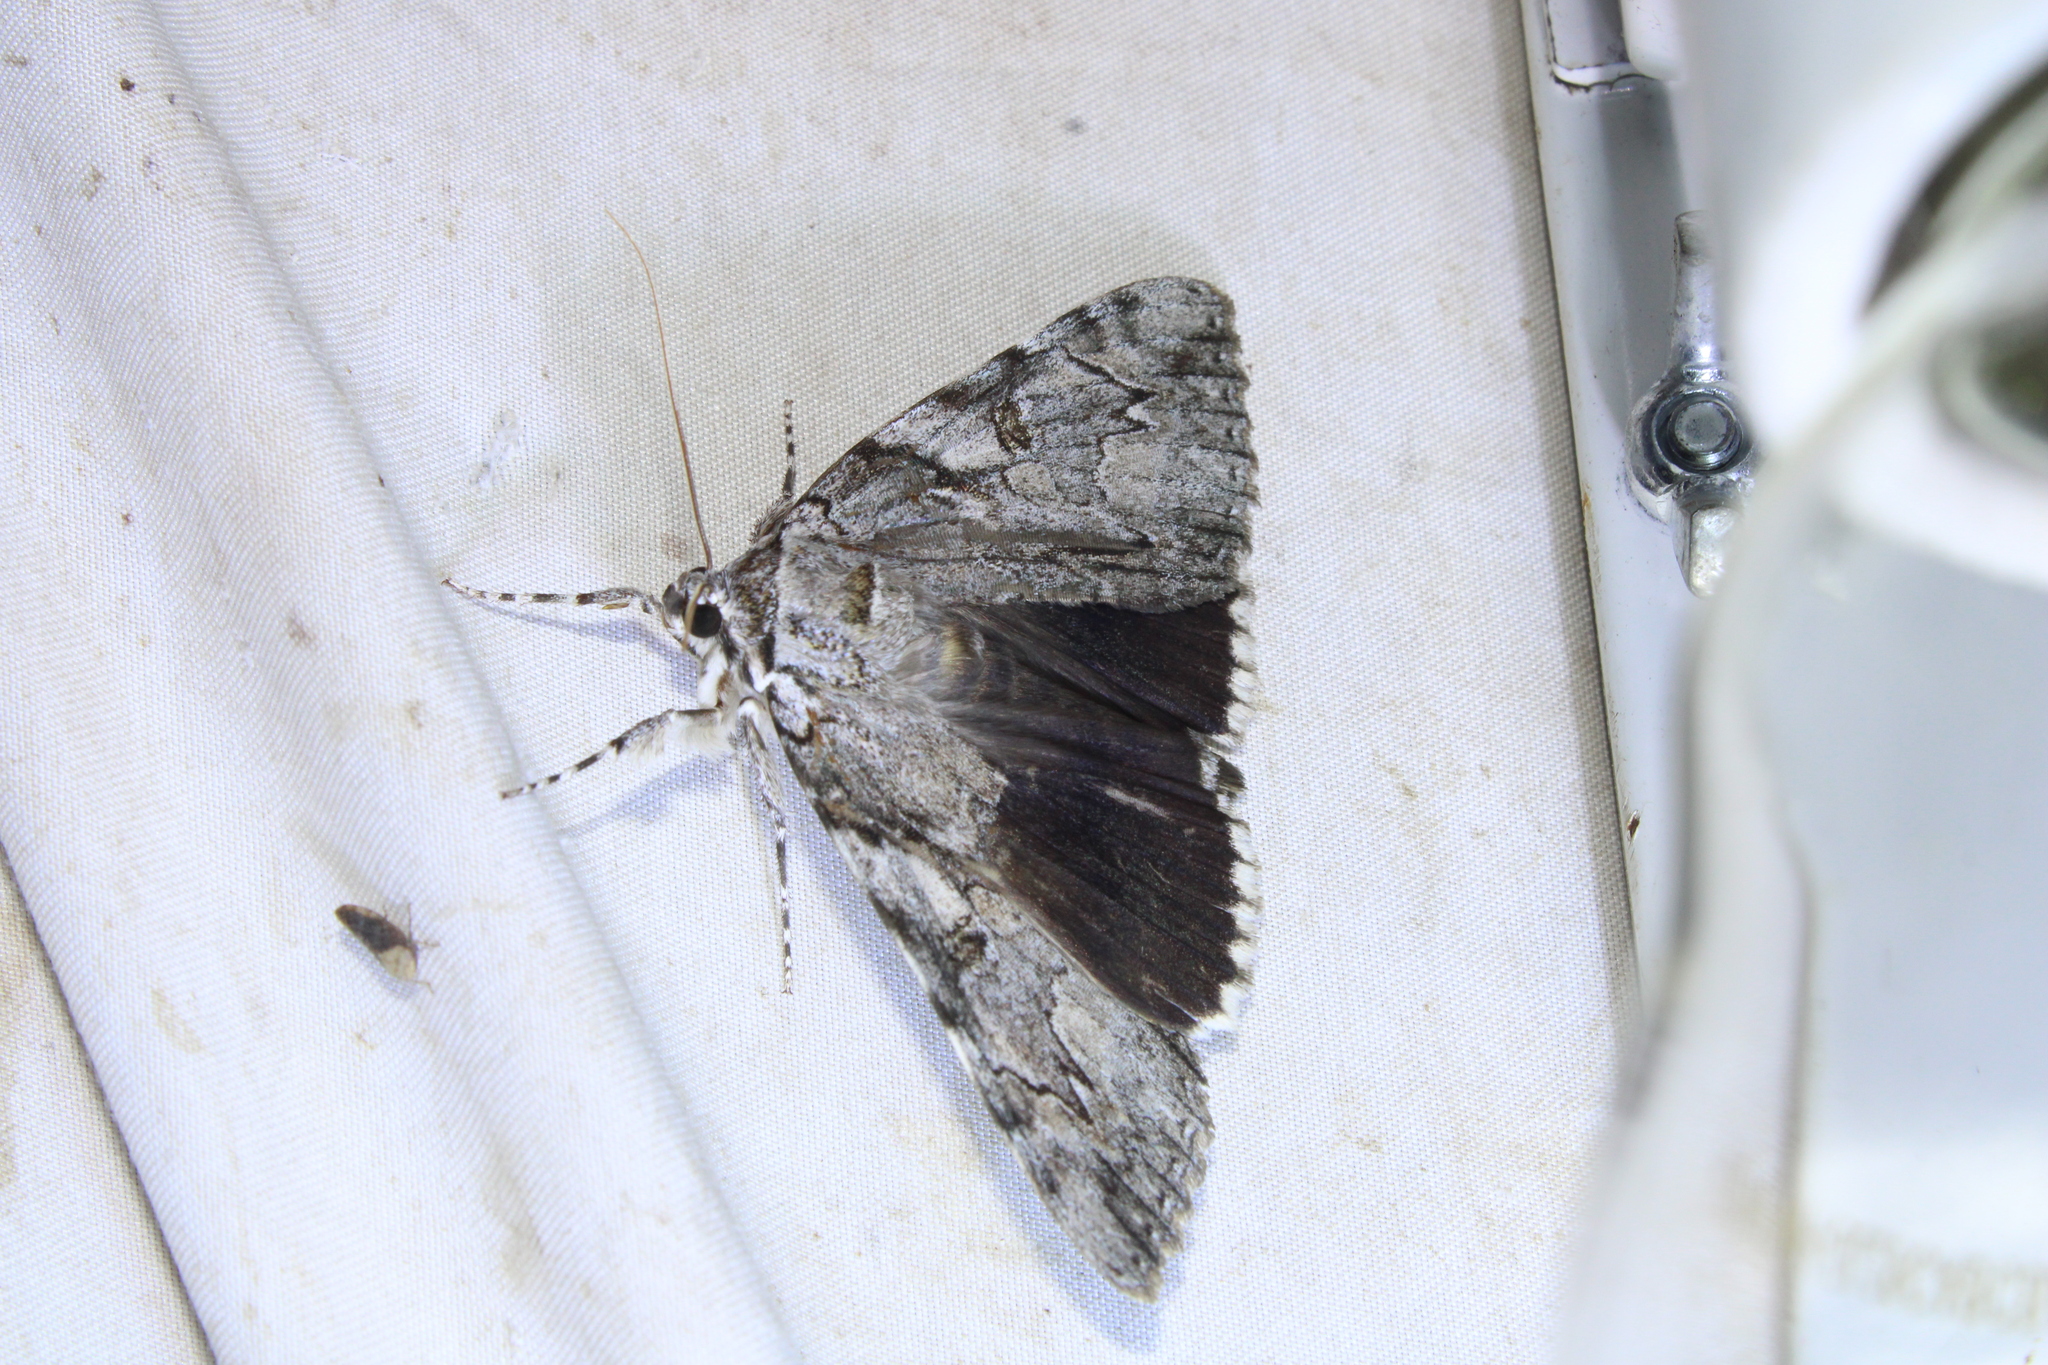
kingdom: Animalia
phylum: Arthropoda
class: Insecta
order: Lepidoptera
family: Erebidae
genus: Catocala
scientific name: Catocala dejecta
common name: Dejected underwing
